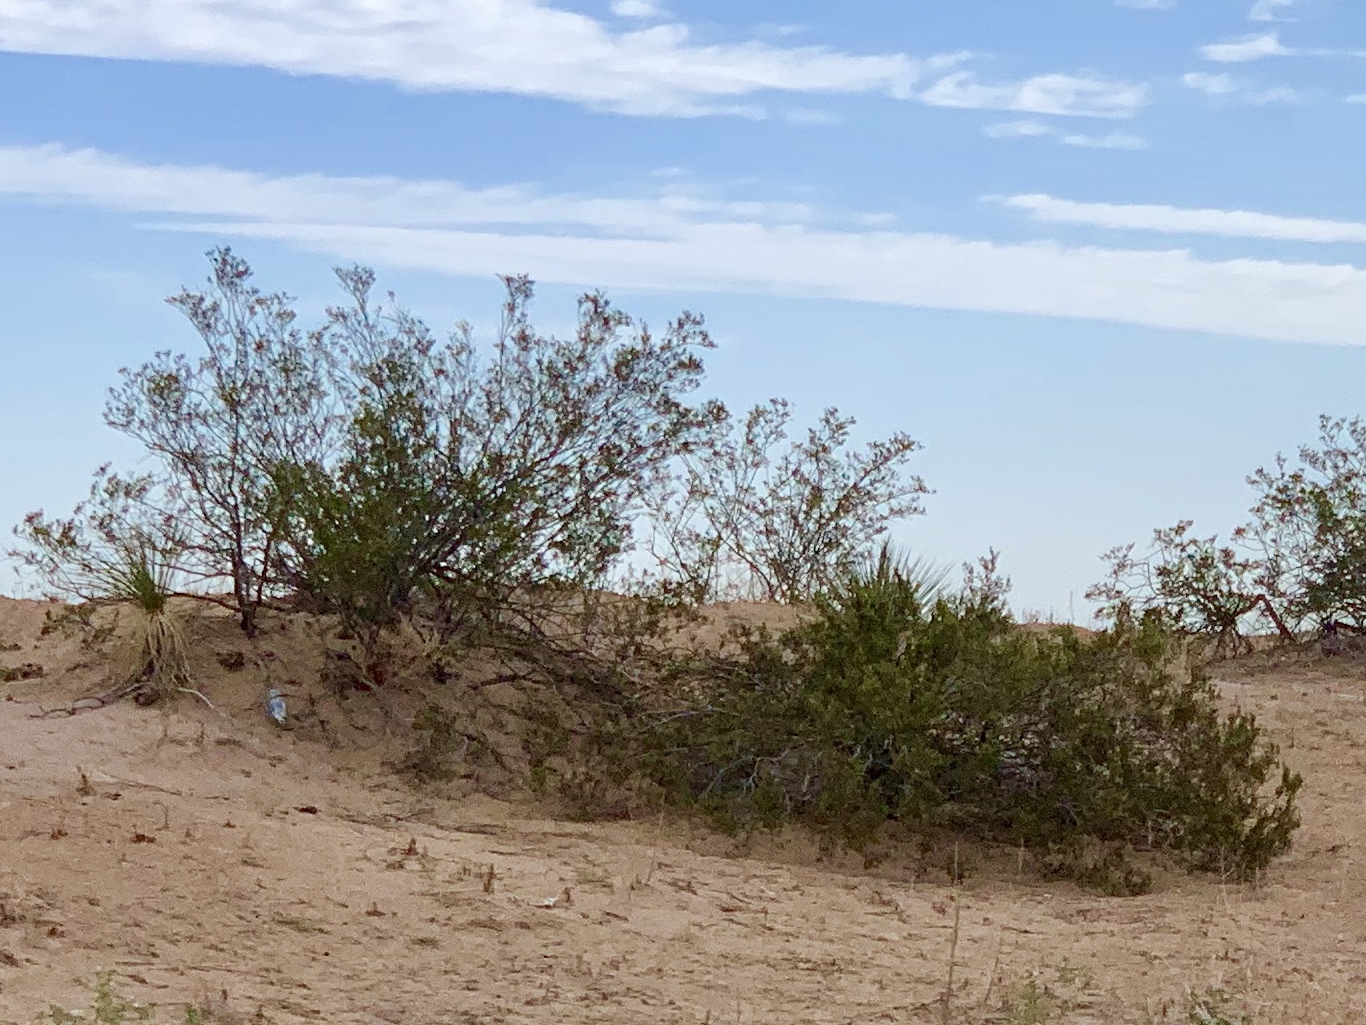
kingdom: Plantae
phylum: Tracheophyta
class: Magnoliopsida
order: Zygophyllales
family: Zygophyllaceae
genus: Larrea
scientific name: Larrea tridentata
